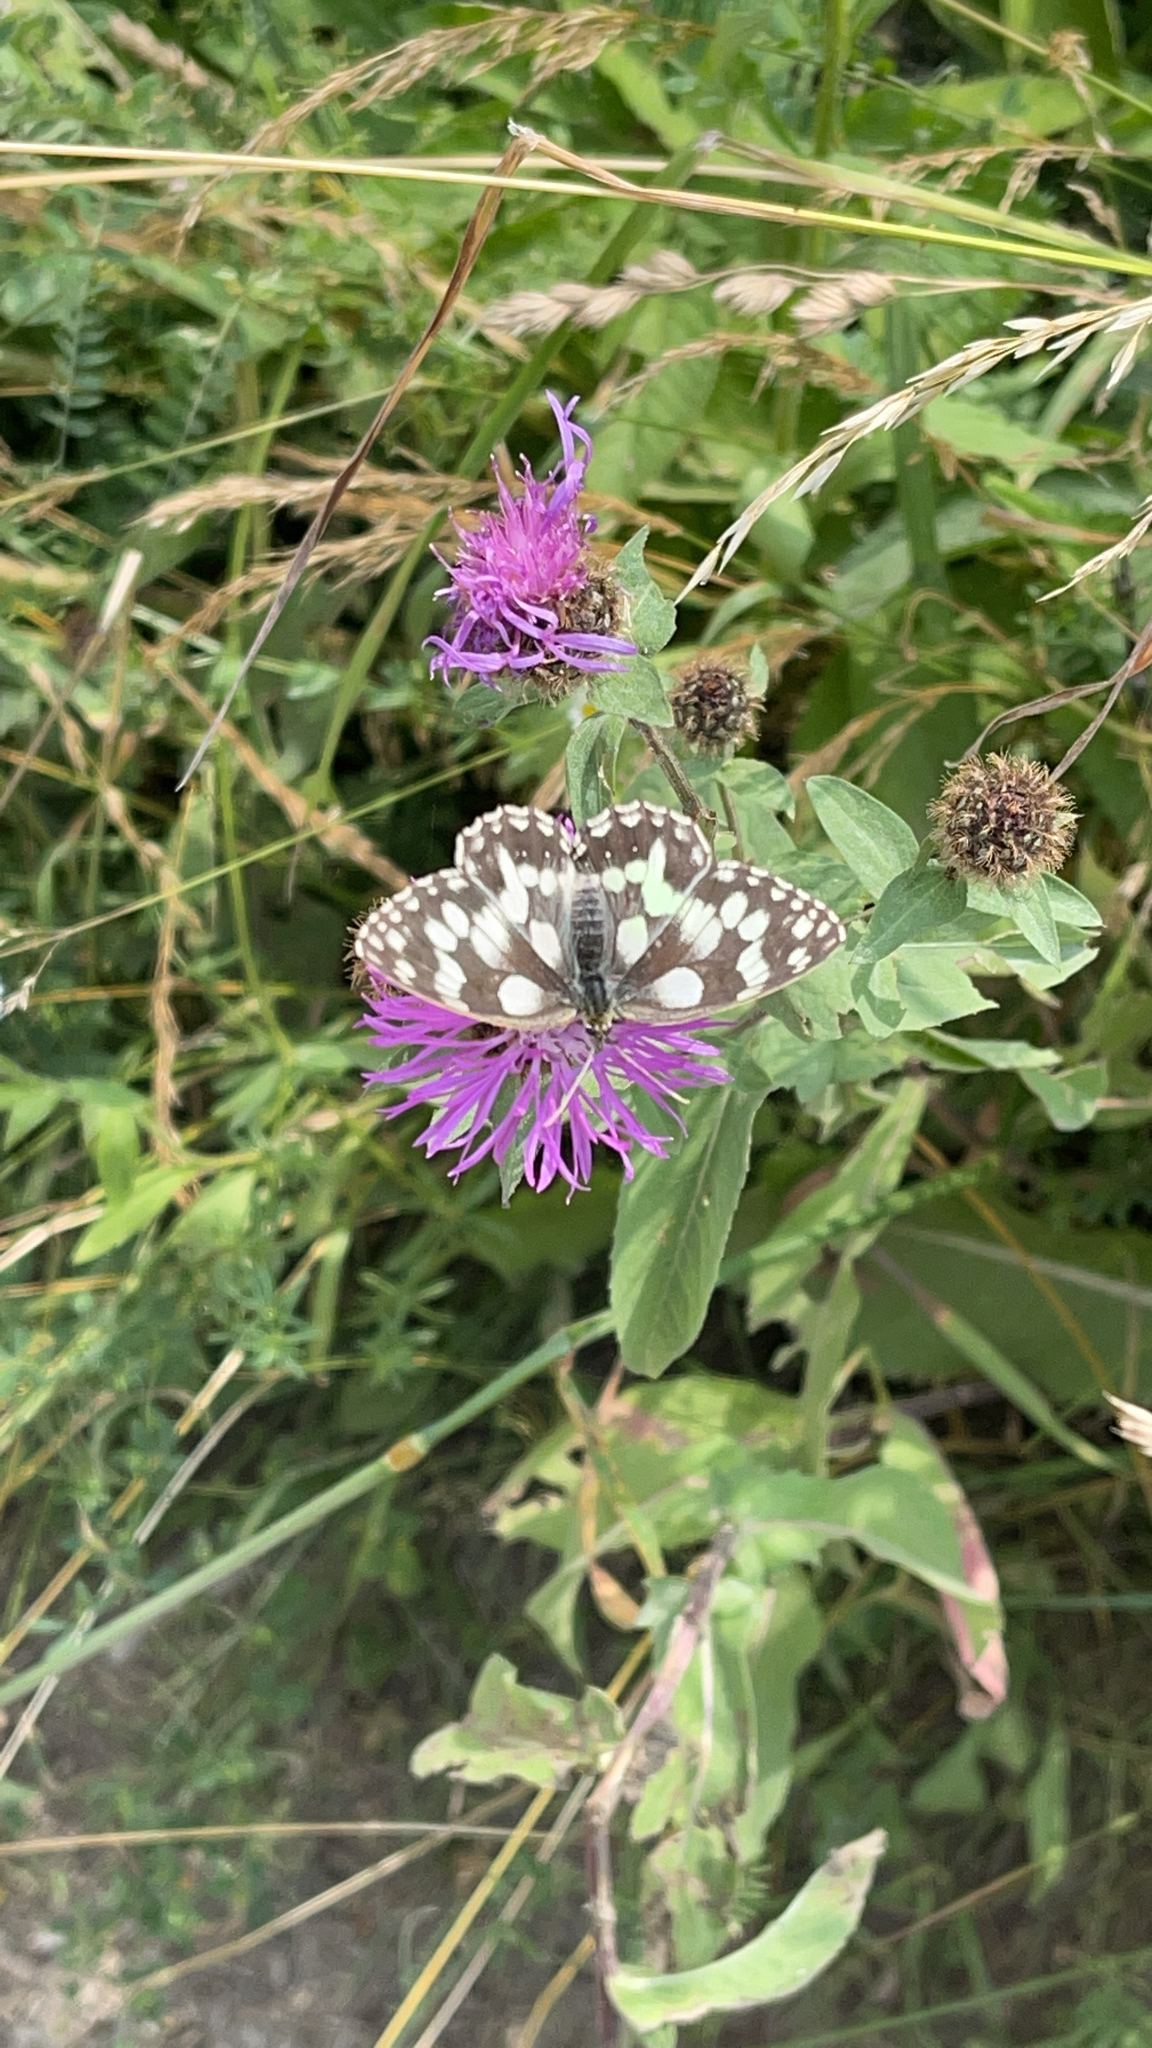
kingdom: Animalia
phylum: Arthropoda
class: Insecta
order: Lepidoptera
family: Nymphalidae
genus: Melanargia
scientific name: Melanargia galathea
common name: Marbled white
